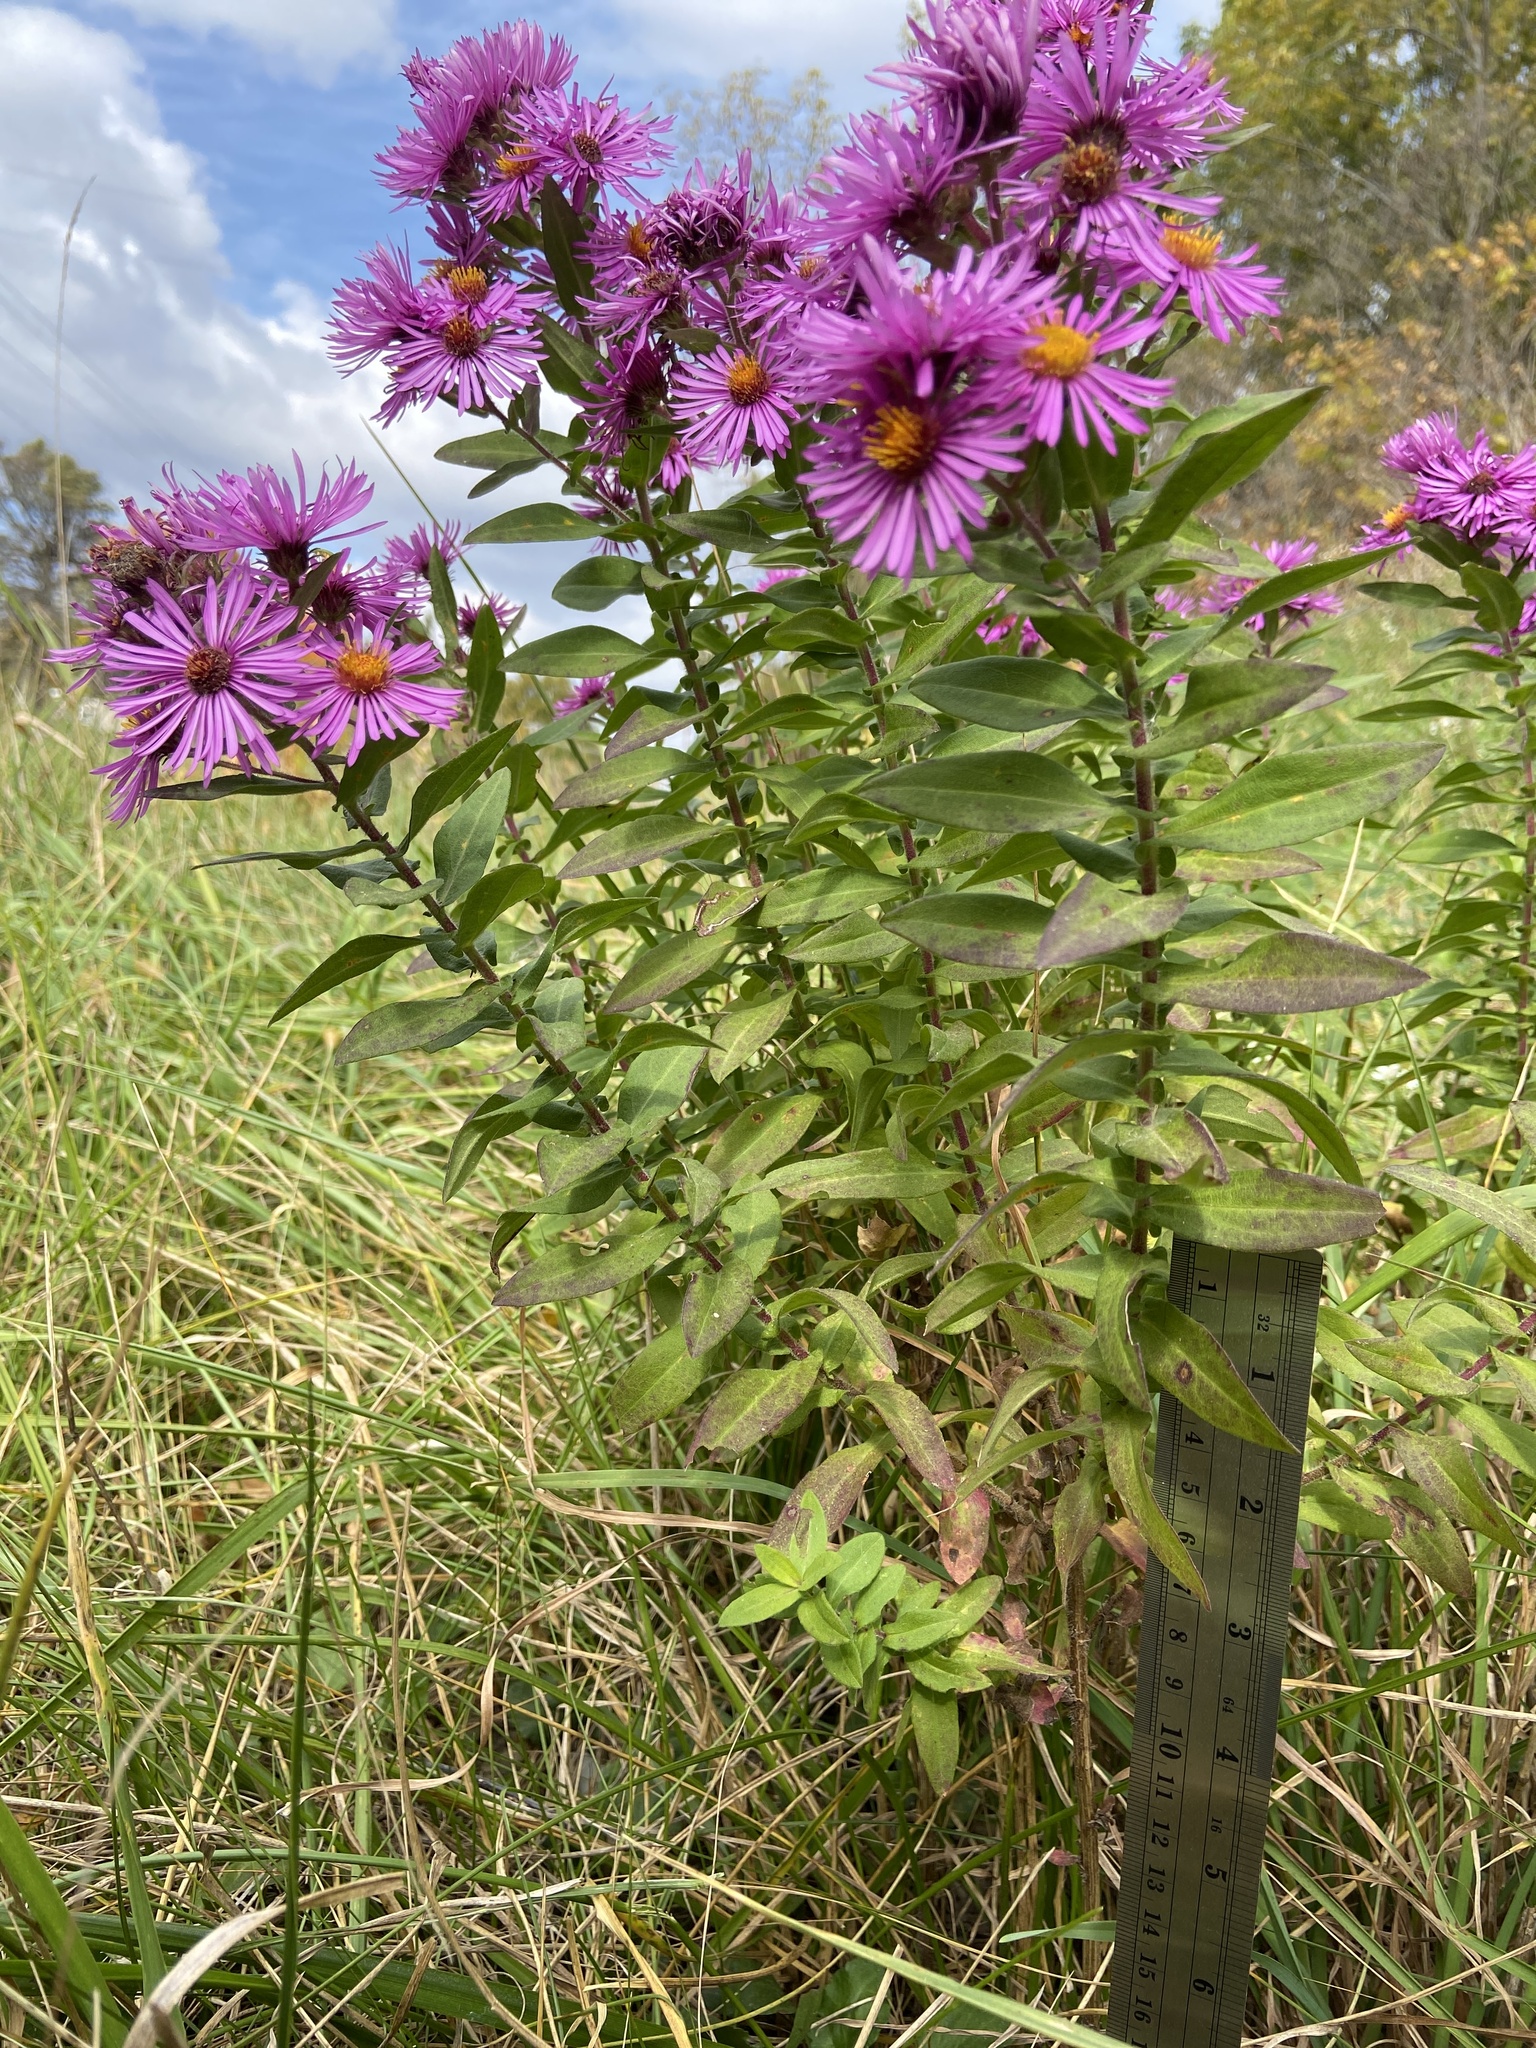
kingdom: Plantae
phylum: Tracheophyta
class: Magnoliopsida
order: Asterales
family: Asteraceae
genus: Symphyotrichum
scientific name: Symphyotrichum novae-angliae
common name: Michaelmas daisy
